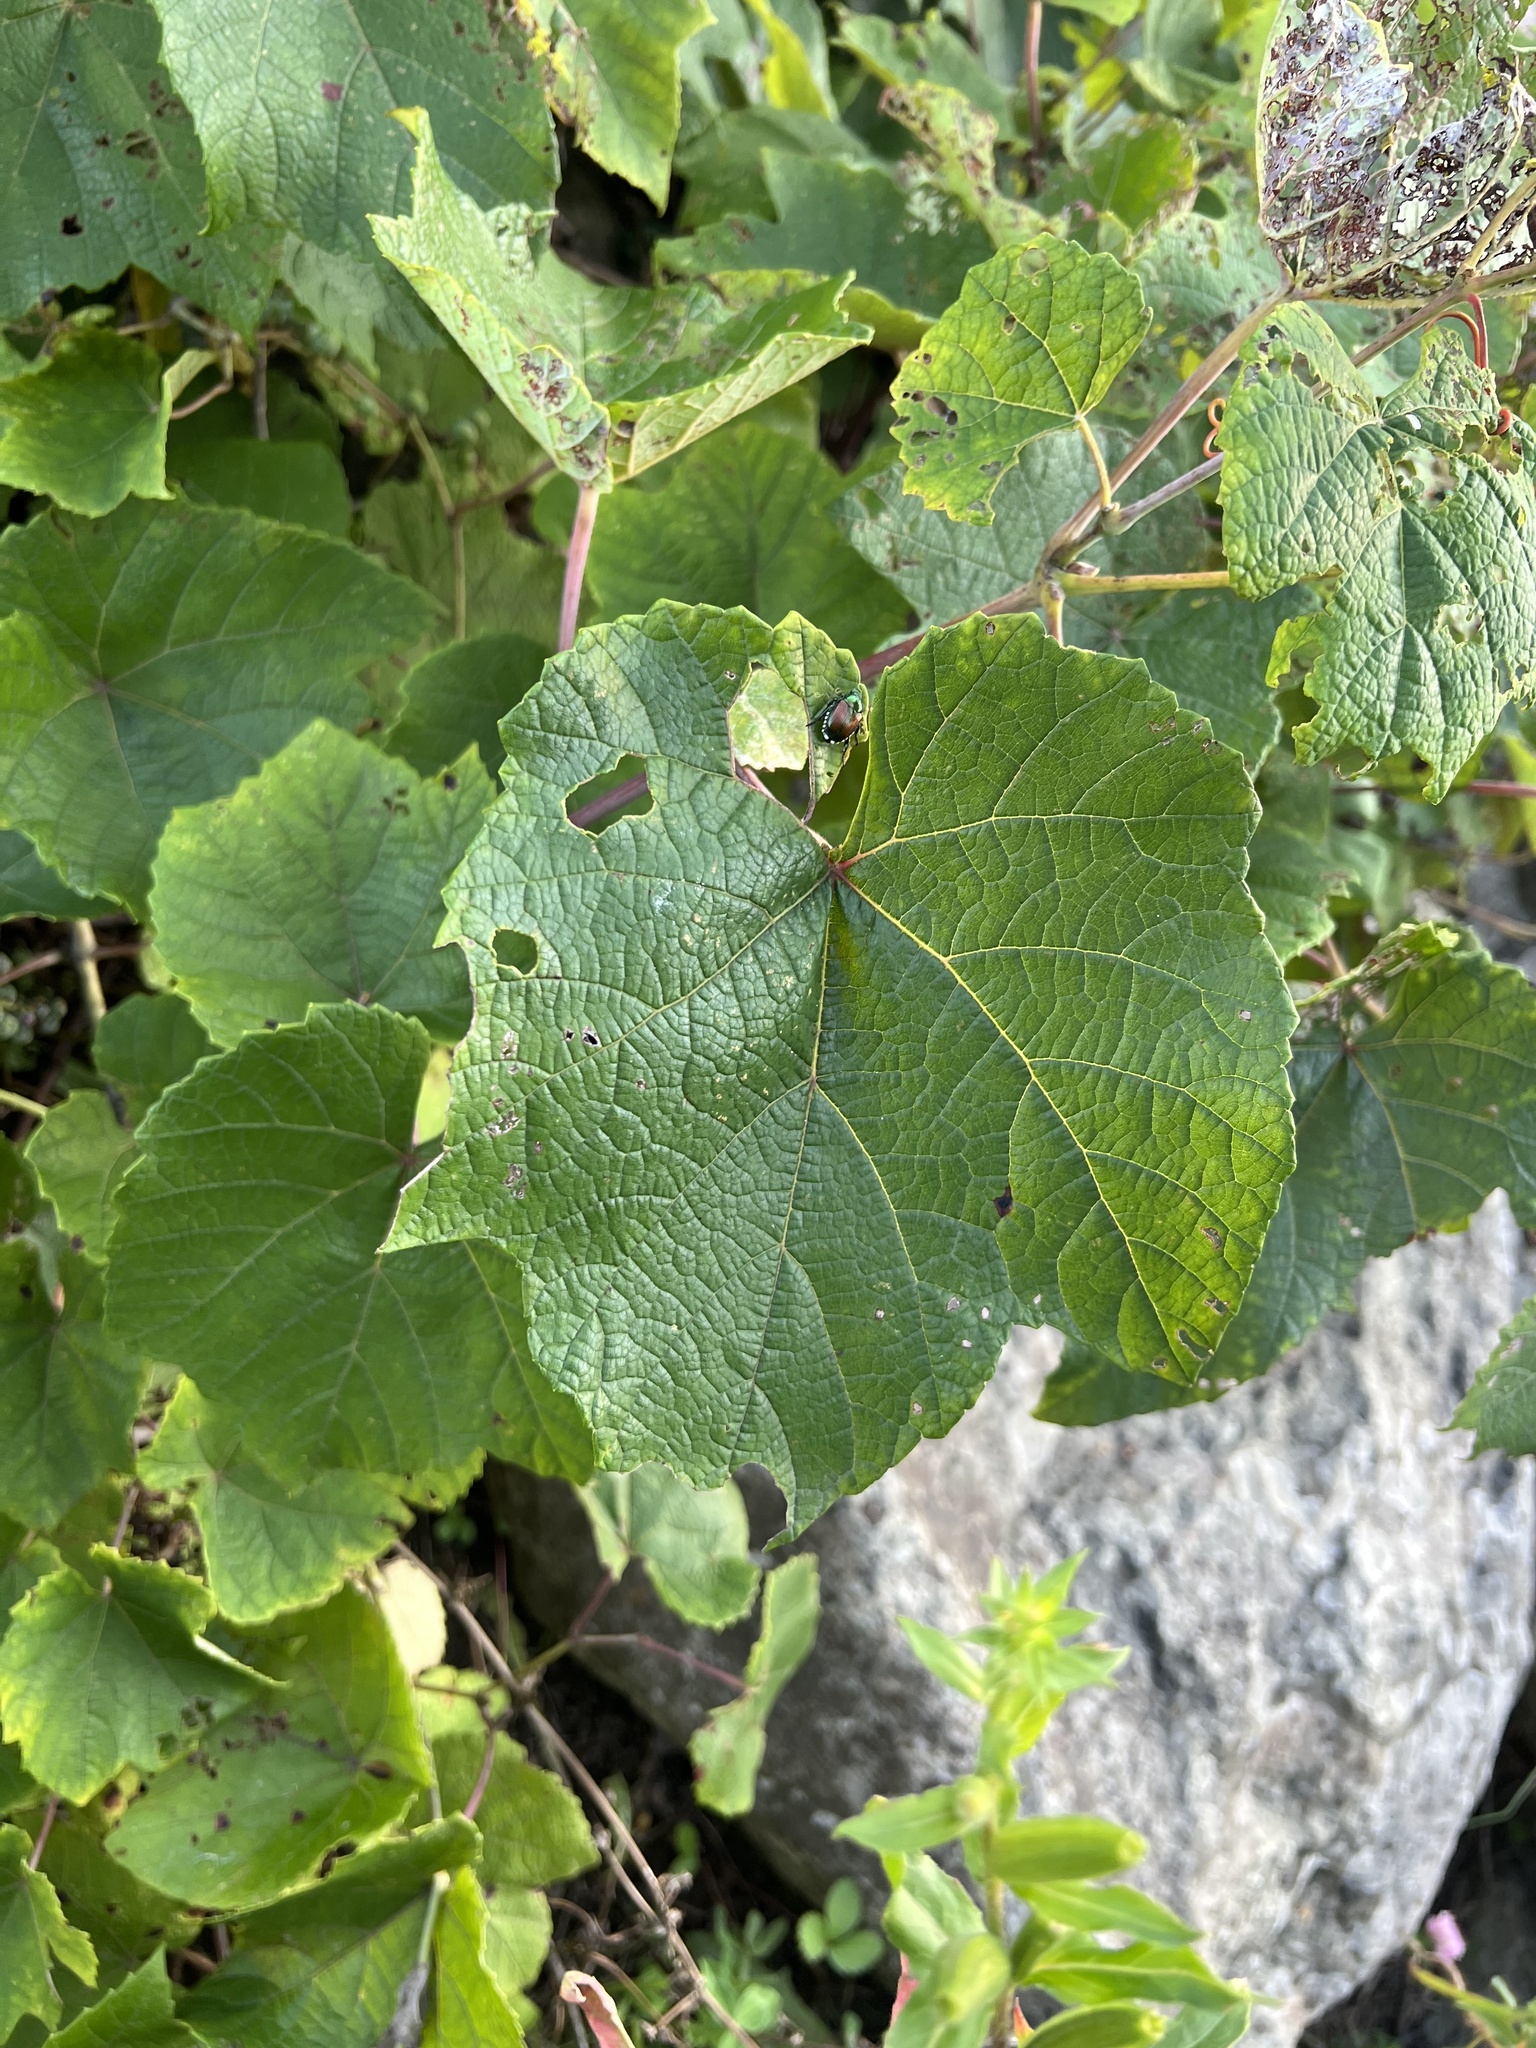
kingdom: Plantae
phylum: Tracheophyta
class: Magnoliopsida
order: Vitales
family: Vitaceae
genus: Vitis
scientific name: Vitis aestivalis
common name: Pigeon grape
